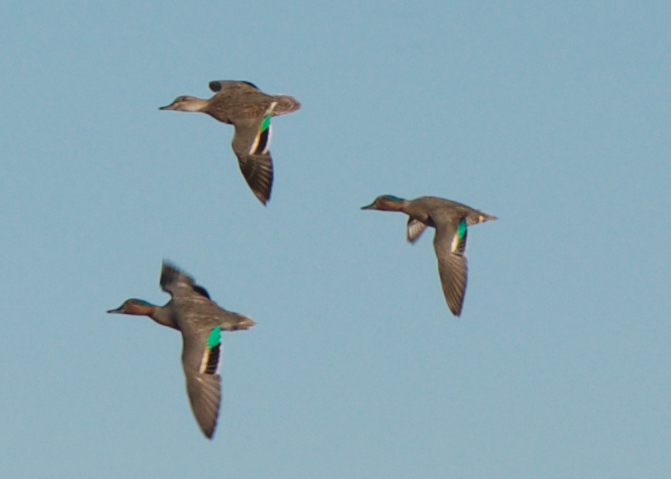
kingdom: Animalia
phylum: Chordata
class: Aves
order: Anseriformes
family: Anatidae
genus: Anas
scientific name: Anas crecca
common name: Eurasian teal
